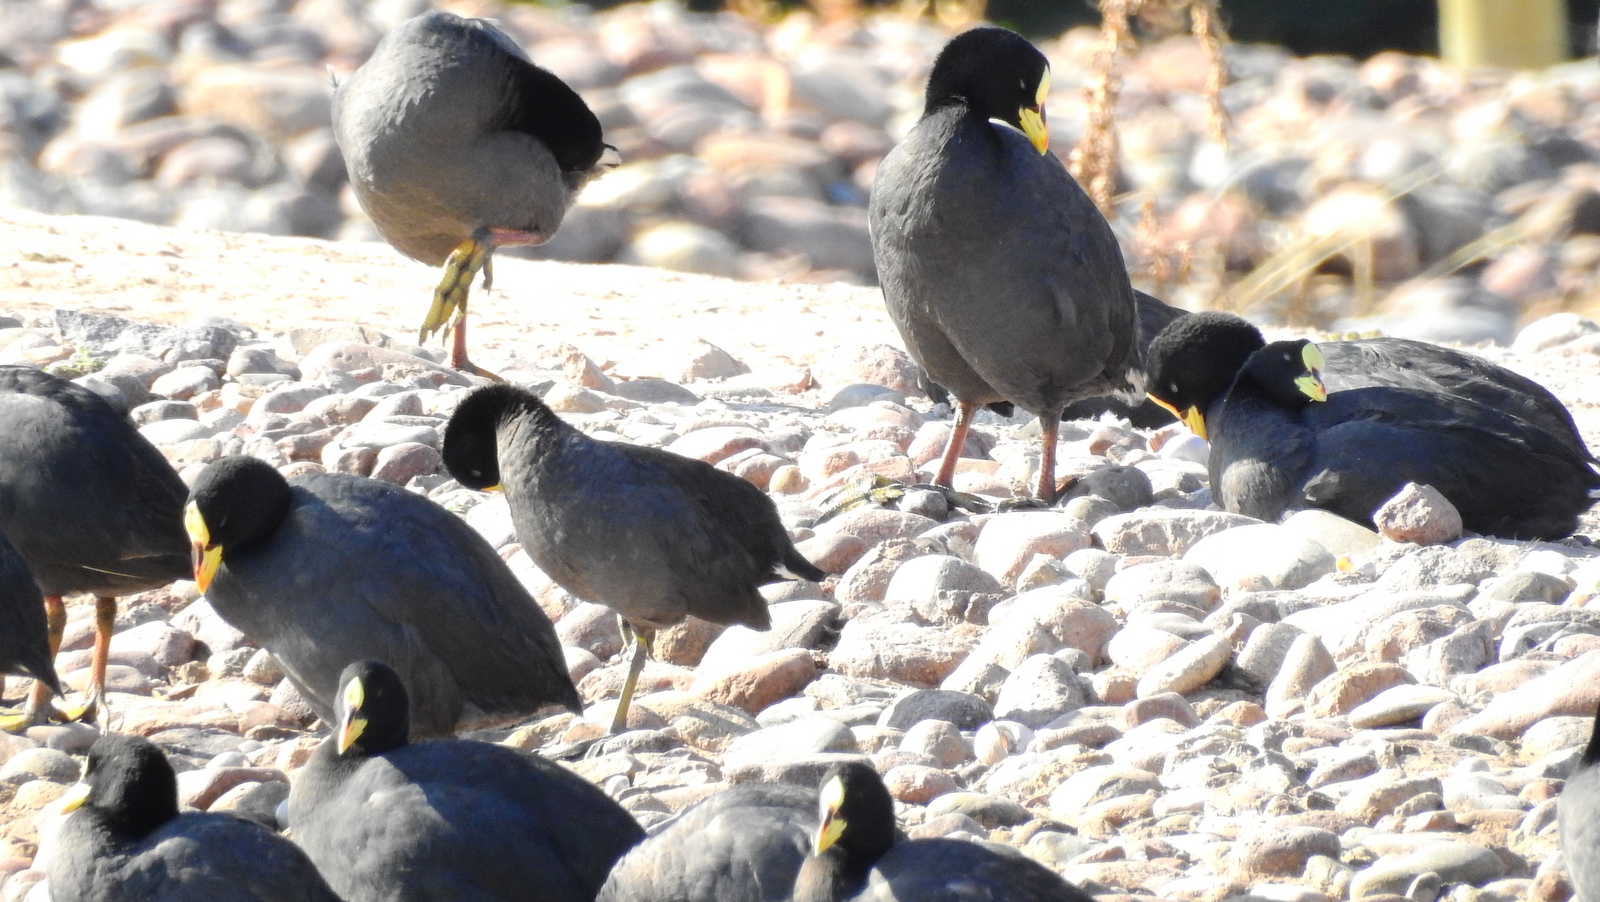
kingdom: Animalia
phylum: Chordata
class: Aves
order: Gruiformes
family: Rallidae
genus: Fulica
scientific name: Fulica armillata
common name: Red-gartered coot
